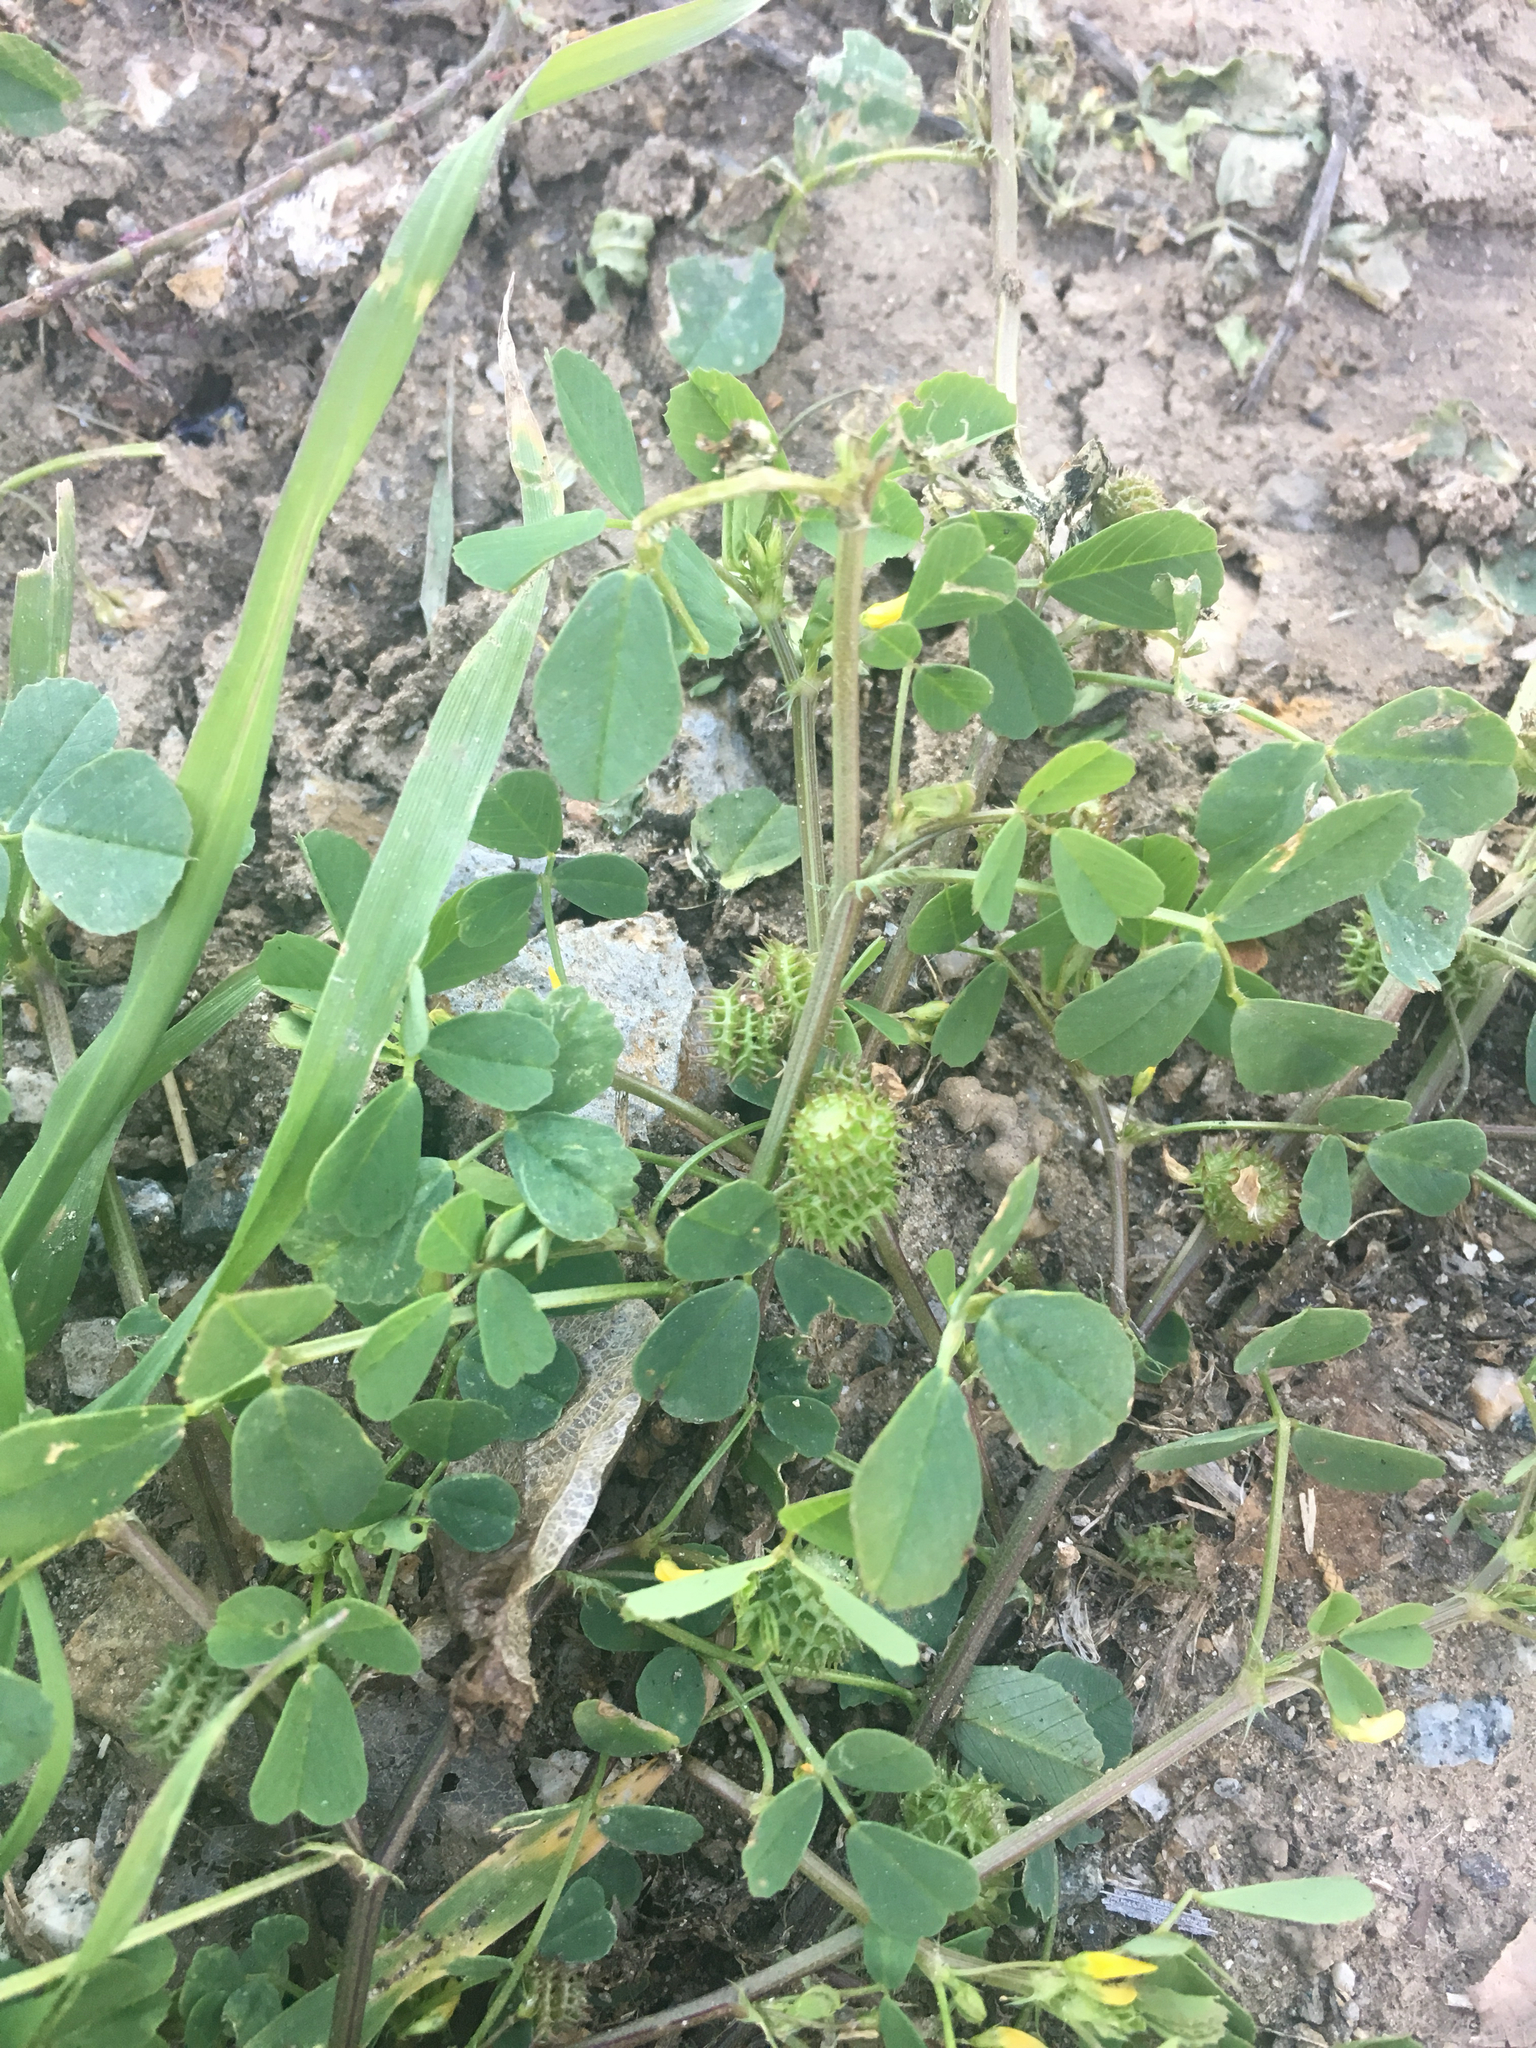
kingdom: Plantae
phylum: Tracheophyta
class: Magnoliopsida
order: Fabales
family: Fabaceae
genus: Medicago
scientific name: Medicago polymorpha
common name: Burclover
